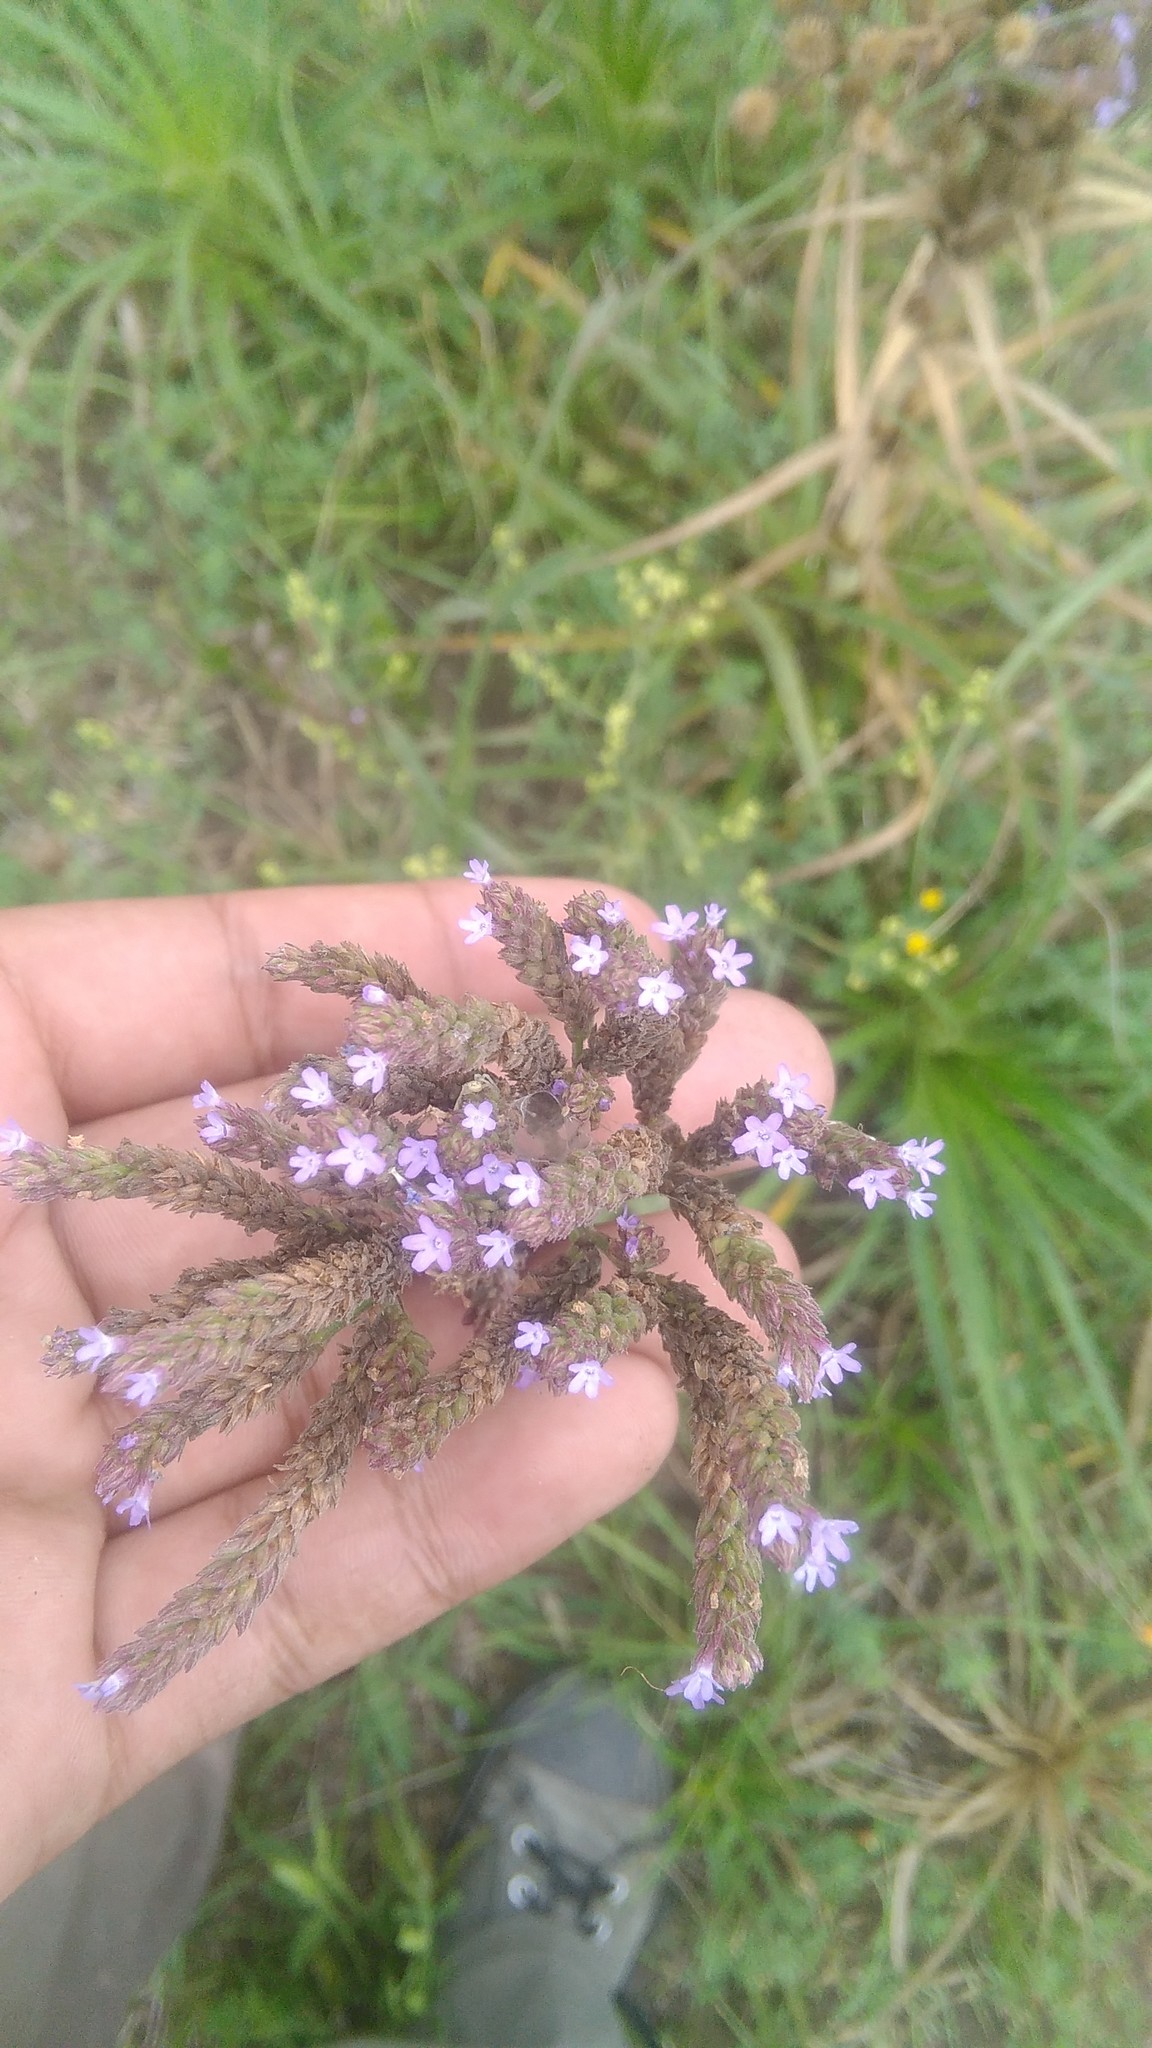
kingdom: Plantae
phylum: Tracheophyta
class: Magnoliopsida
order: Lamiales
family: Verbenaceae
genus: Verbena
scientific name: Verbena bonariensis
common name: Purpletop vervain
